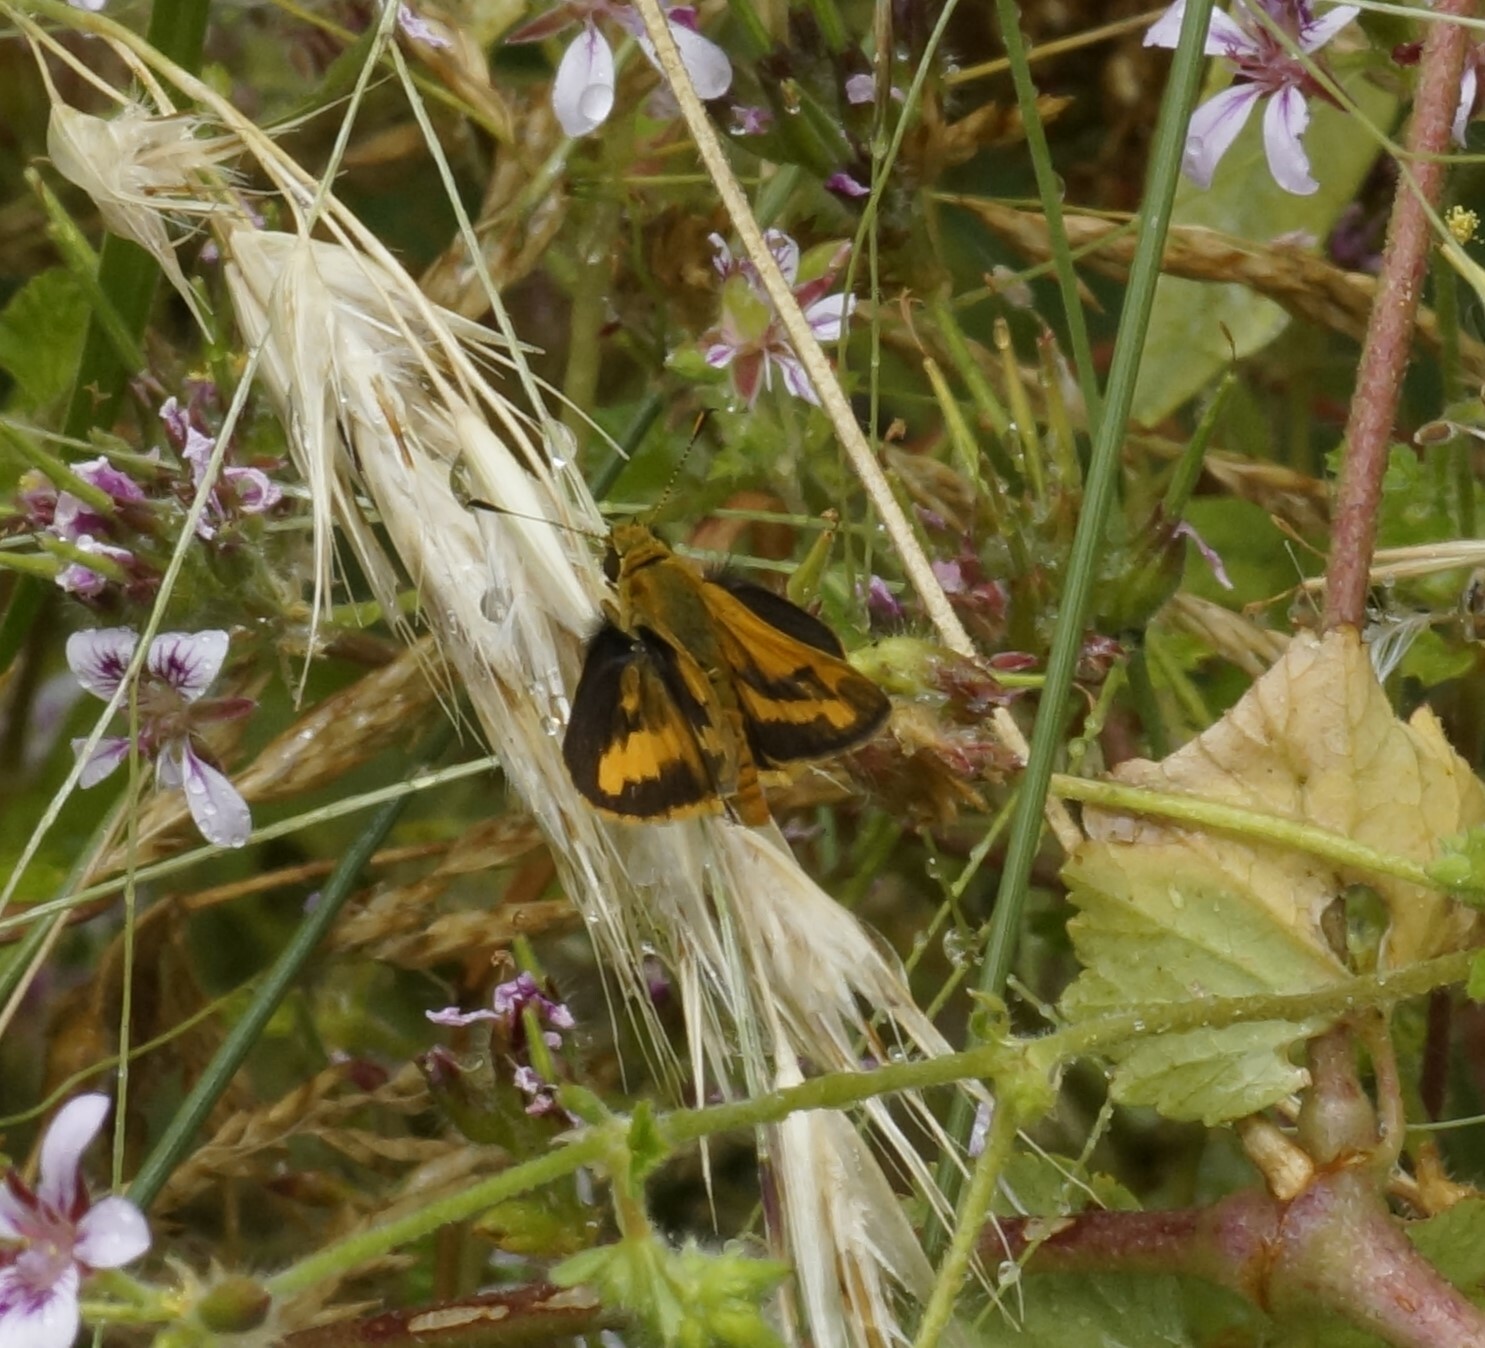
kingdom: Animalia
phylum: Arthropoda
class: Insecta
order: Lepidoptera
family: Hesperiidae
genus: Ocybadistes
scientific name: Ocybadistes walkeri
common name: Yellow-banded dart
